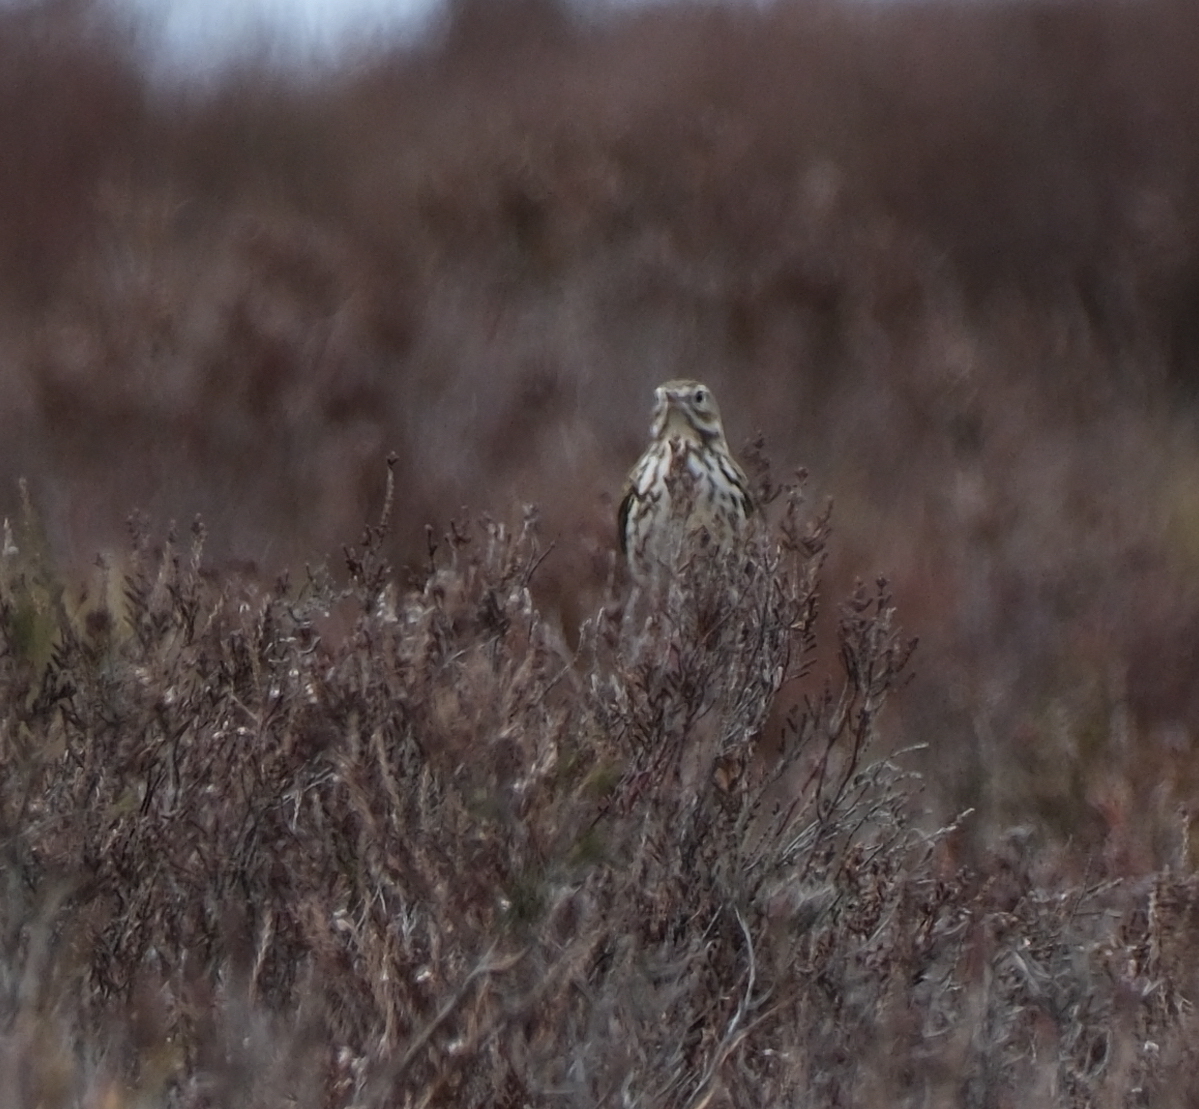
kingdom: Animalia
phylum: Chordata
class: Aves
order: Passeriformes
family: Motacillidae
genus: Anthus
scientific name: Anthus pratensis
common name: Meadow pipit
